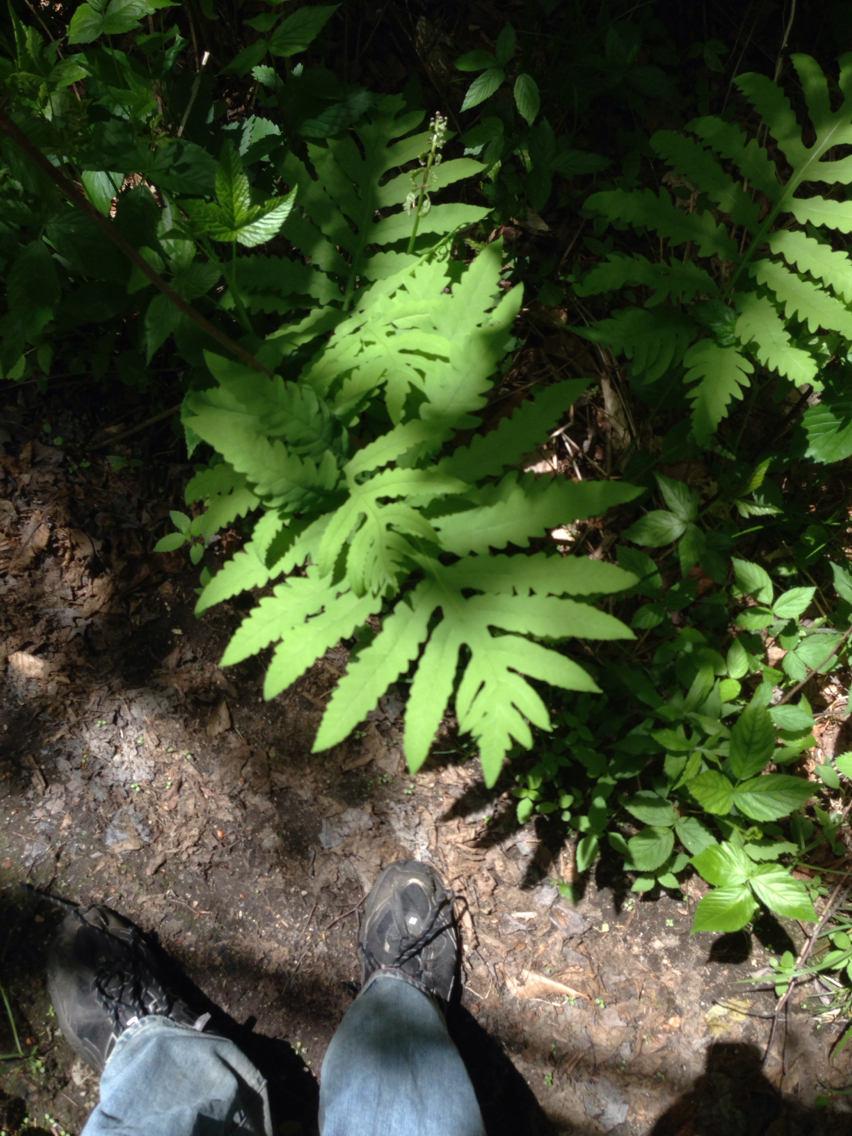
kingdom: Plantae
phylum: Tracheophyta
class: Polypodiopsida
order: Polypodiales
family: Onocleaceae
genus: Onoclea
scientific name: Onoclea sensibilis
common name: Sensitive fern
